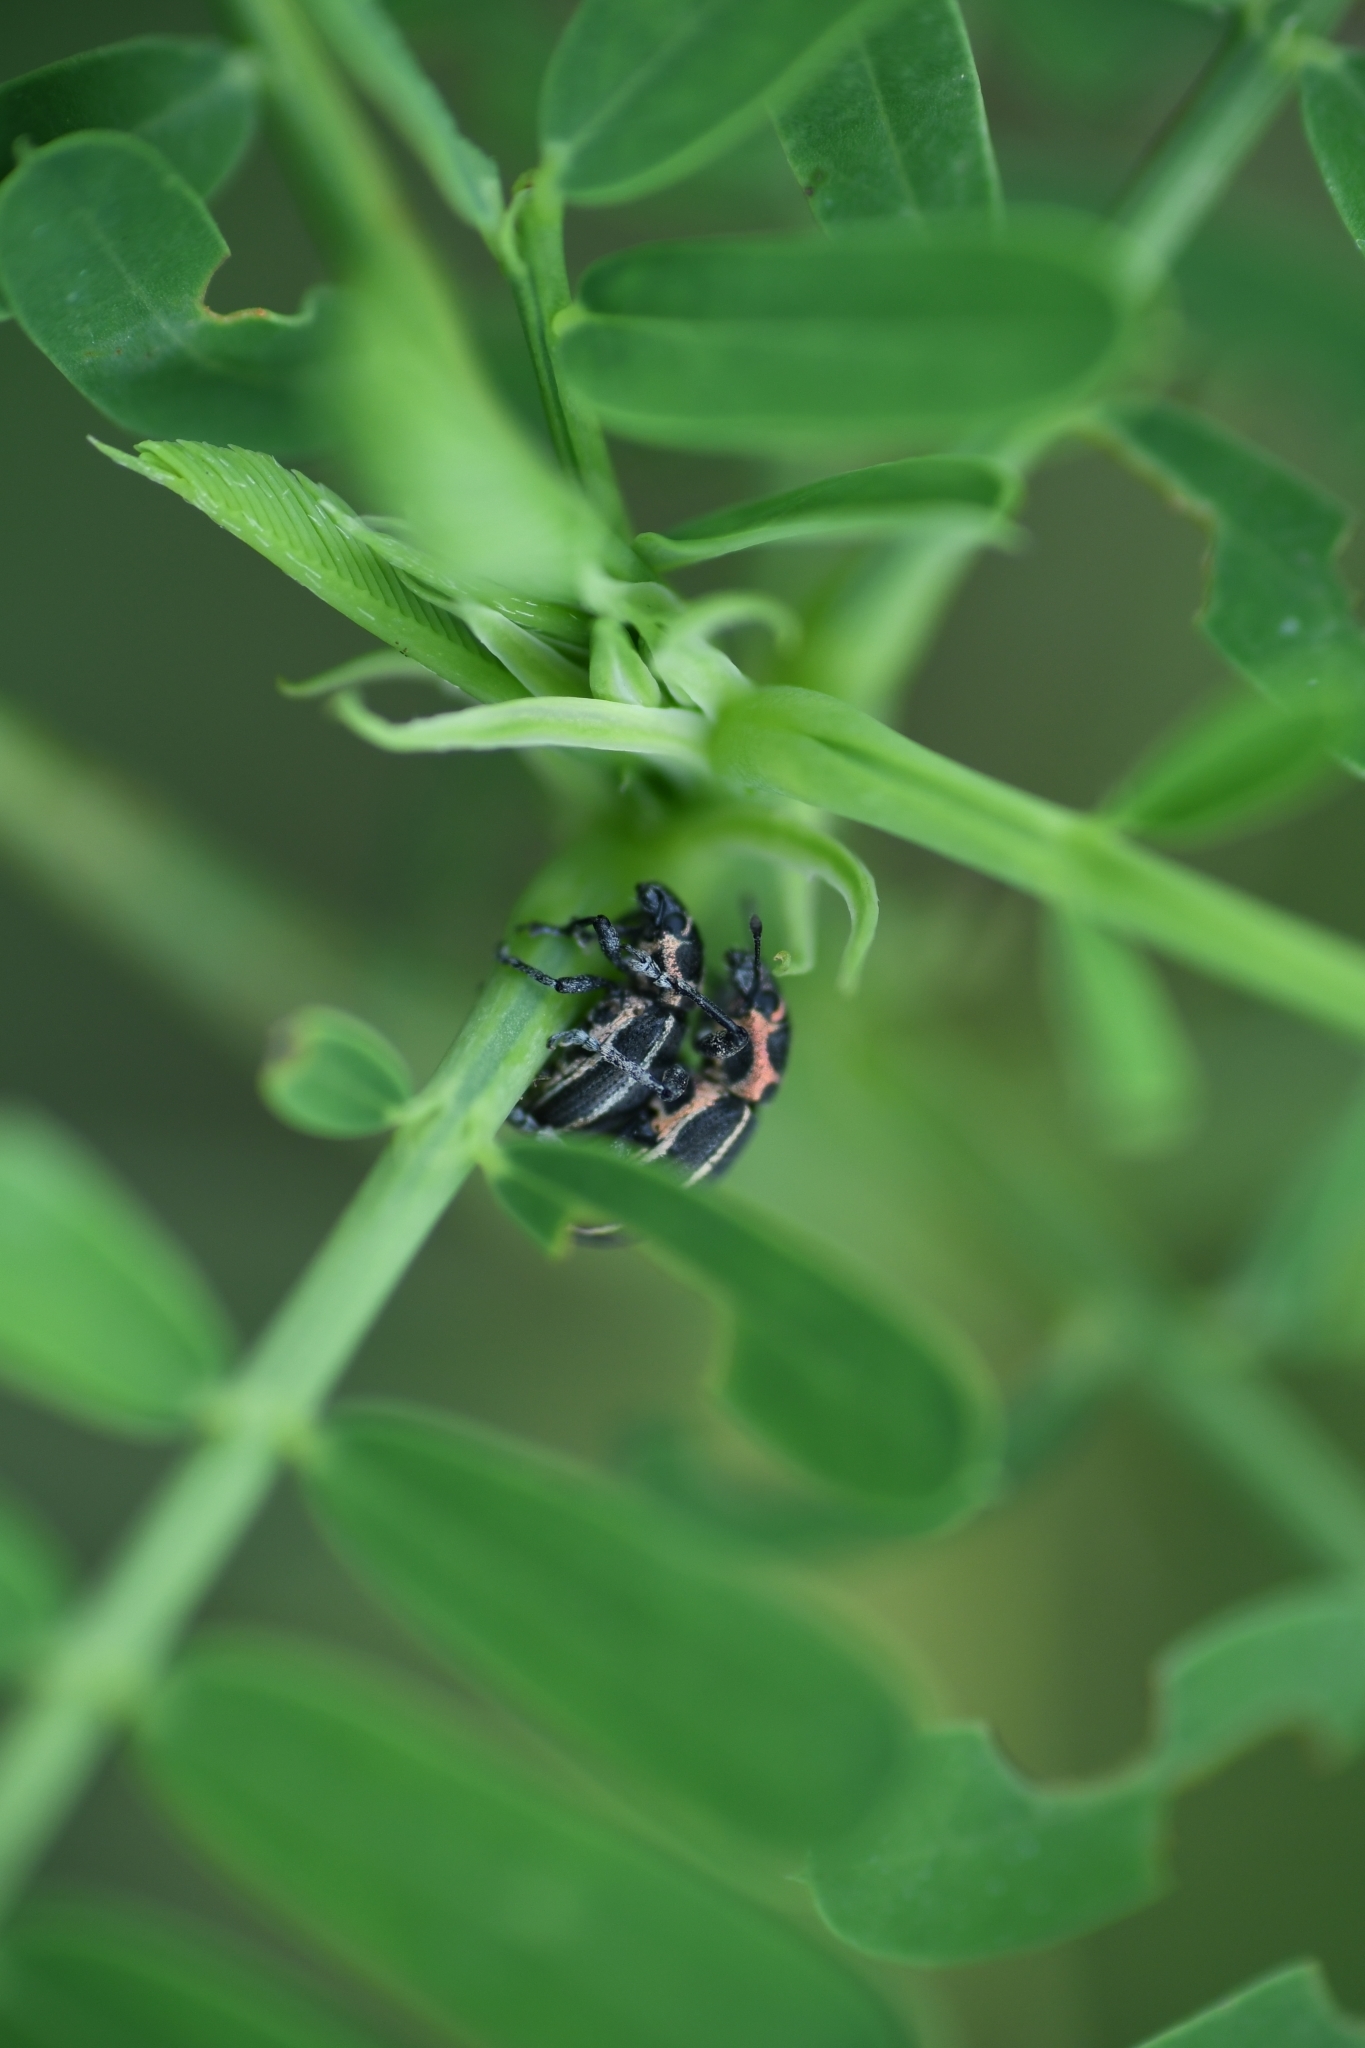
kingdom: Animalia
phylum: Arthropoda
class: Insecta
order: Coleoptera
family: Curculionidae
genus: Eudiagogus
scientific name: Eudiagogus maryae
